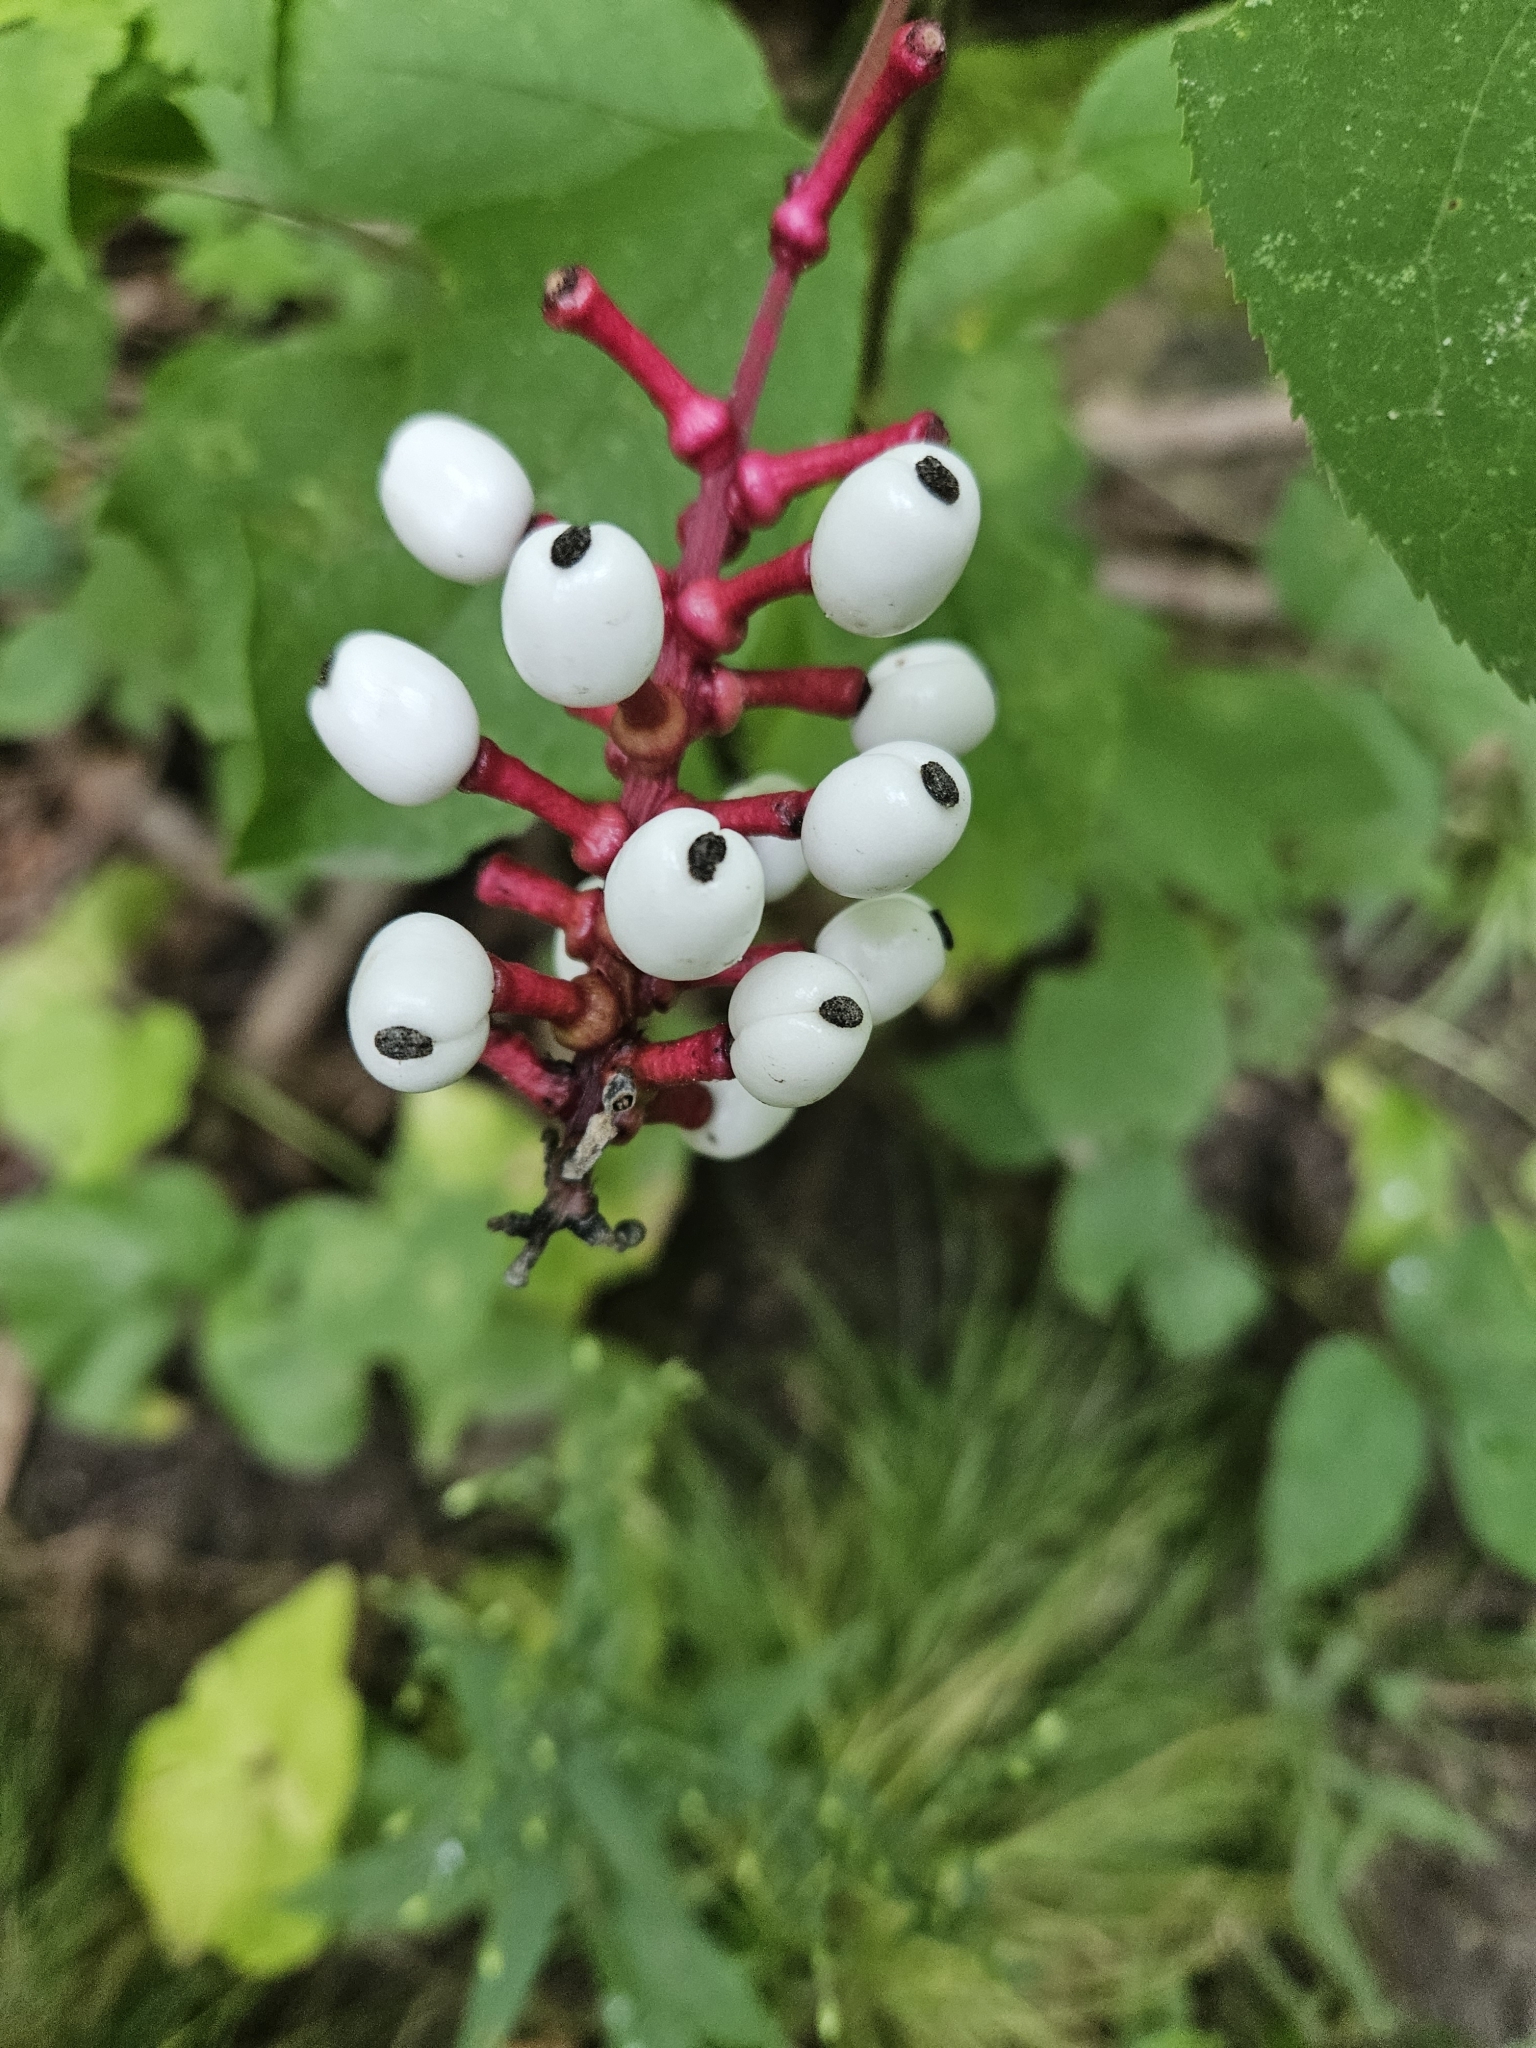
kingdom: Plantae
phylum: Tracheophyta
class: Magnoliopsida
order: Ranunculales
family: Ranunculaceae
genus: Actaea
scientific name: Actaea pachypoda
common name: Doll's-eyes
